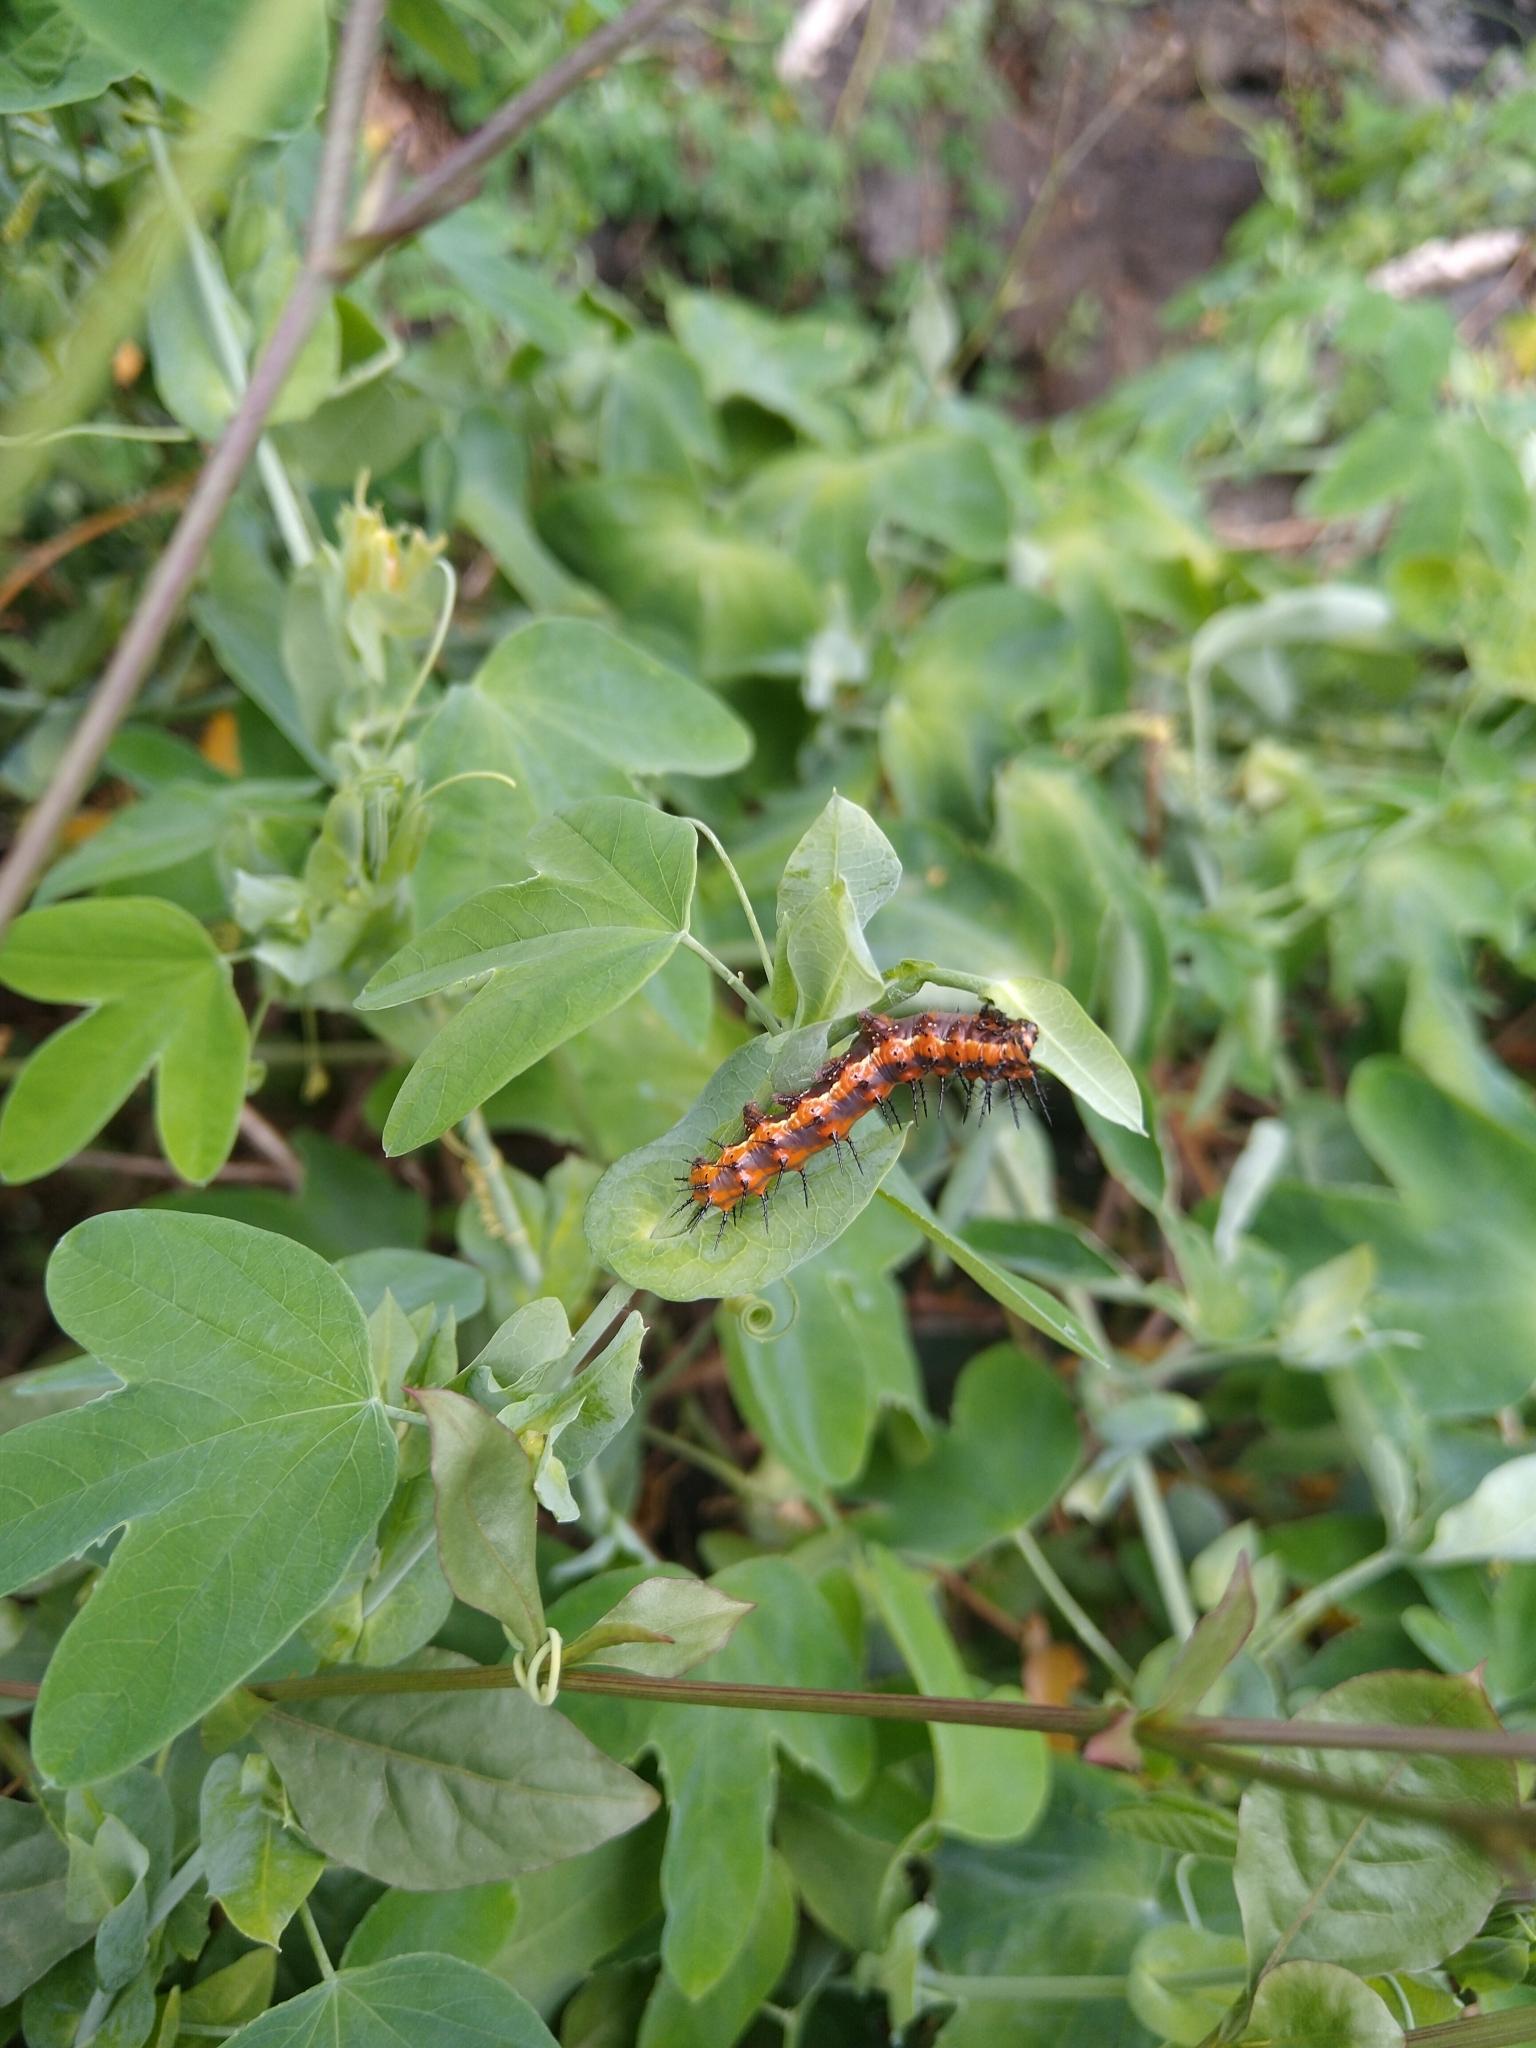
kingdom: Animalia
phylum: Arthropoda
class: Insecta
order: Lepidoptera
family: Nymphalidae
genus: Dione
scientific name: Dione vanillae
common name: Gulf fritillary
